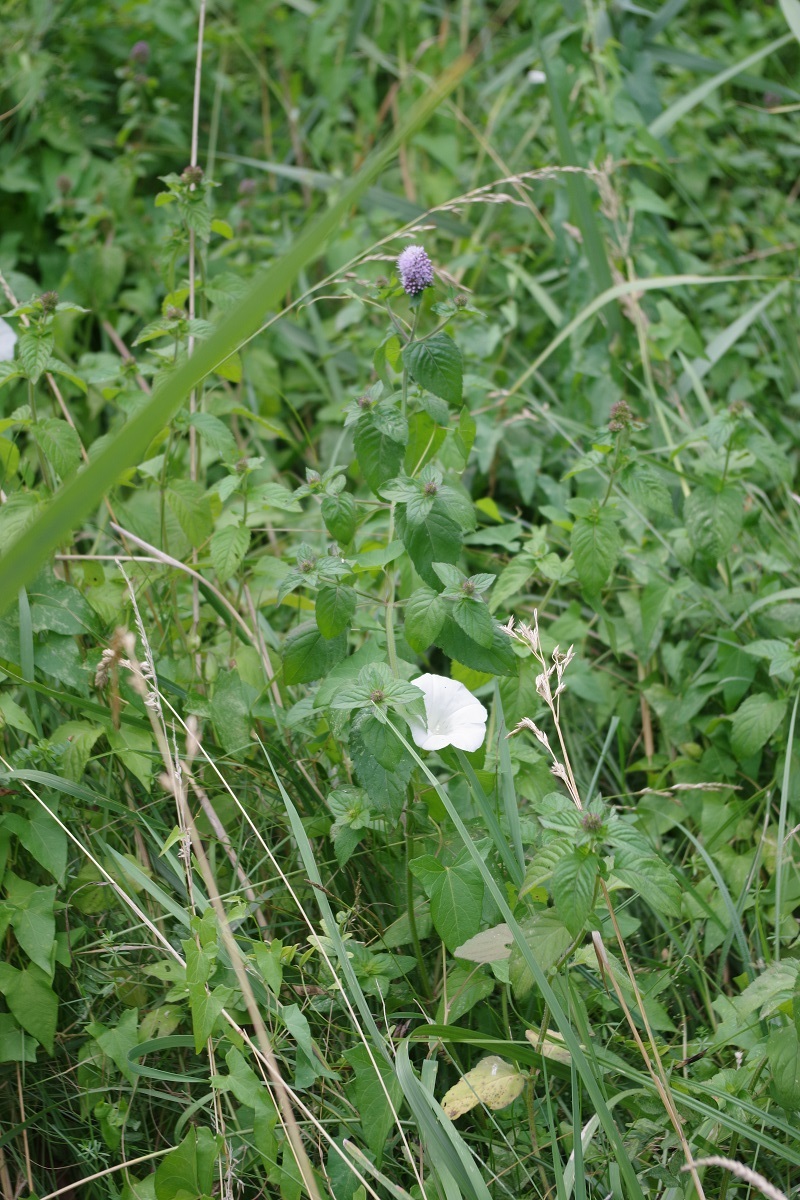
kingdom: Plantae
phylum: Tracheophyta
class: Magnoliopsida
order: Lamiales
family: Lamiaceae
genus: Mentha
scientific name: Mentha aquatica
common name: Water mint
